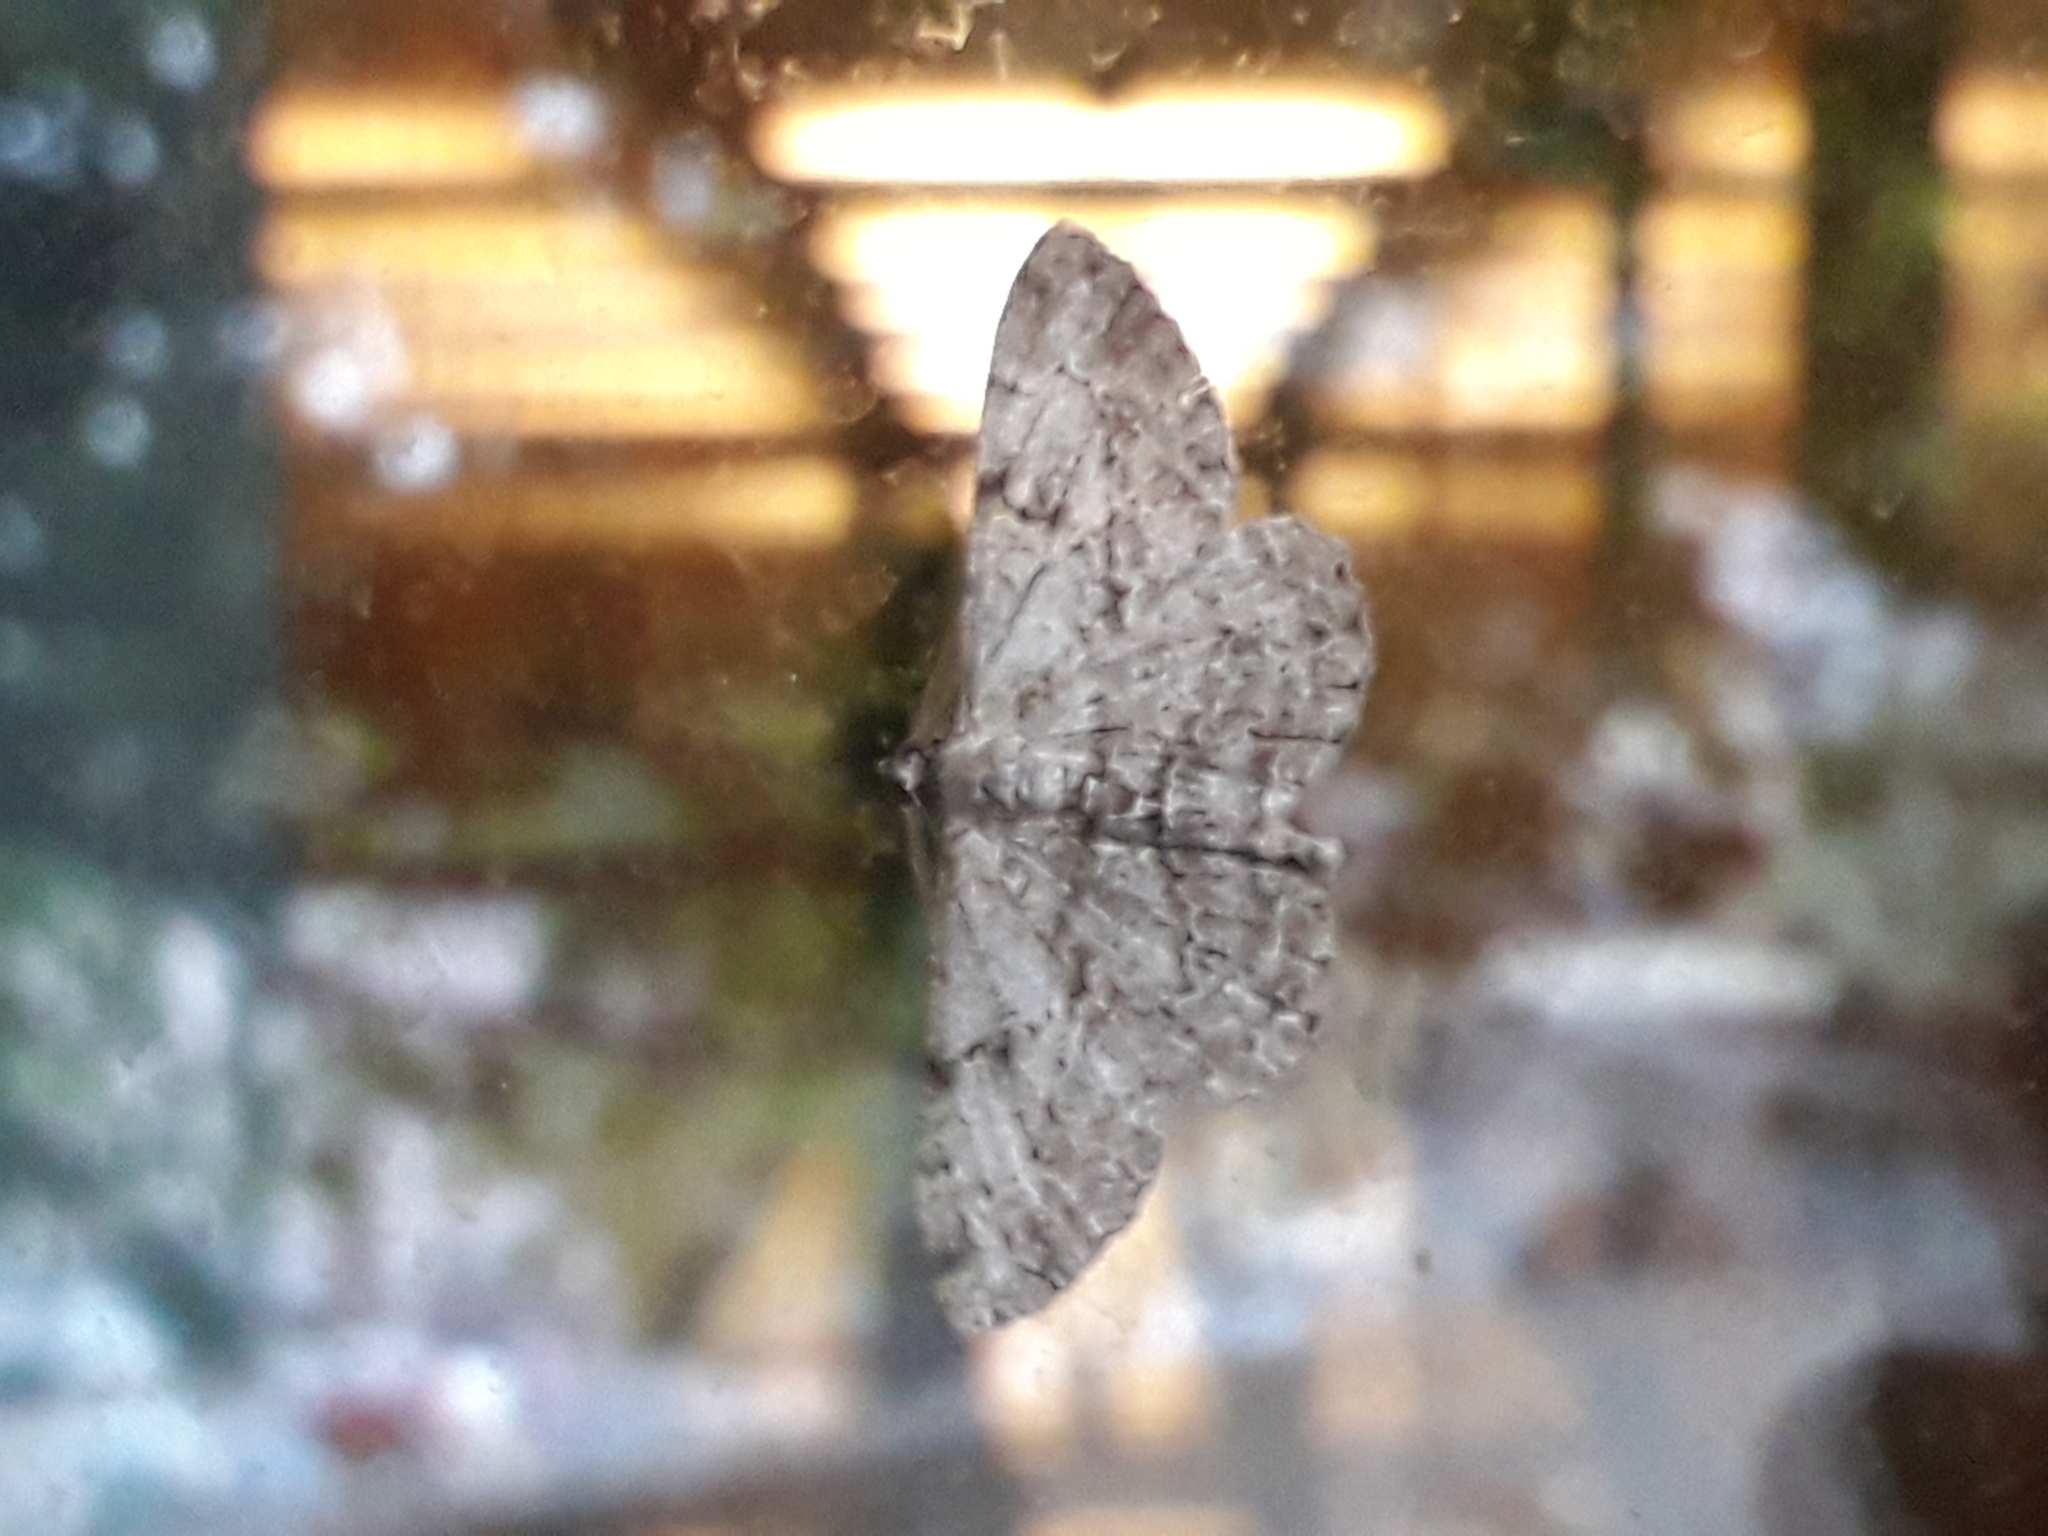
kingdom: Animalia
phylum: Arthropoda
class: Insecta
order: Lepidoptera
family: Geometridae
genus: Peribatodes
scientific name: Peribatodes rhomboidaria
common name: Willow beauty
